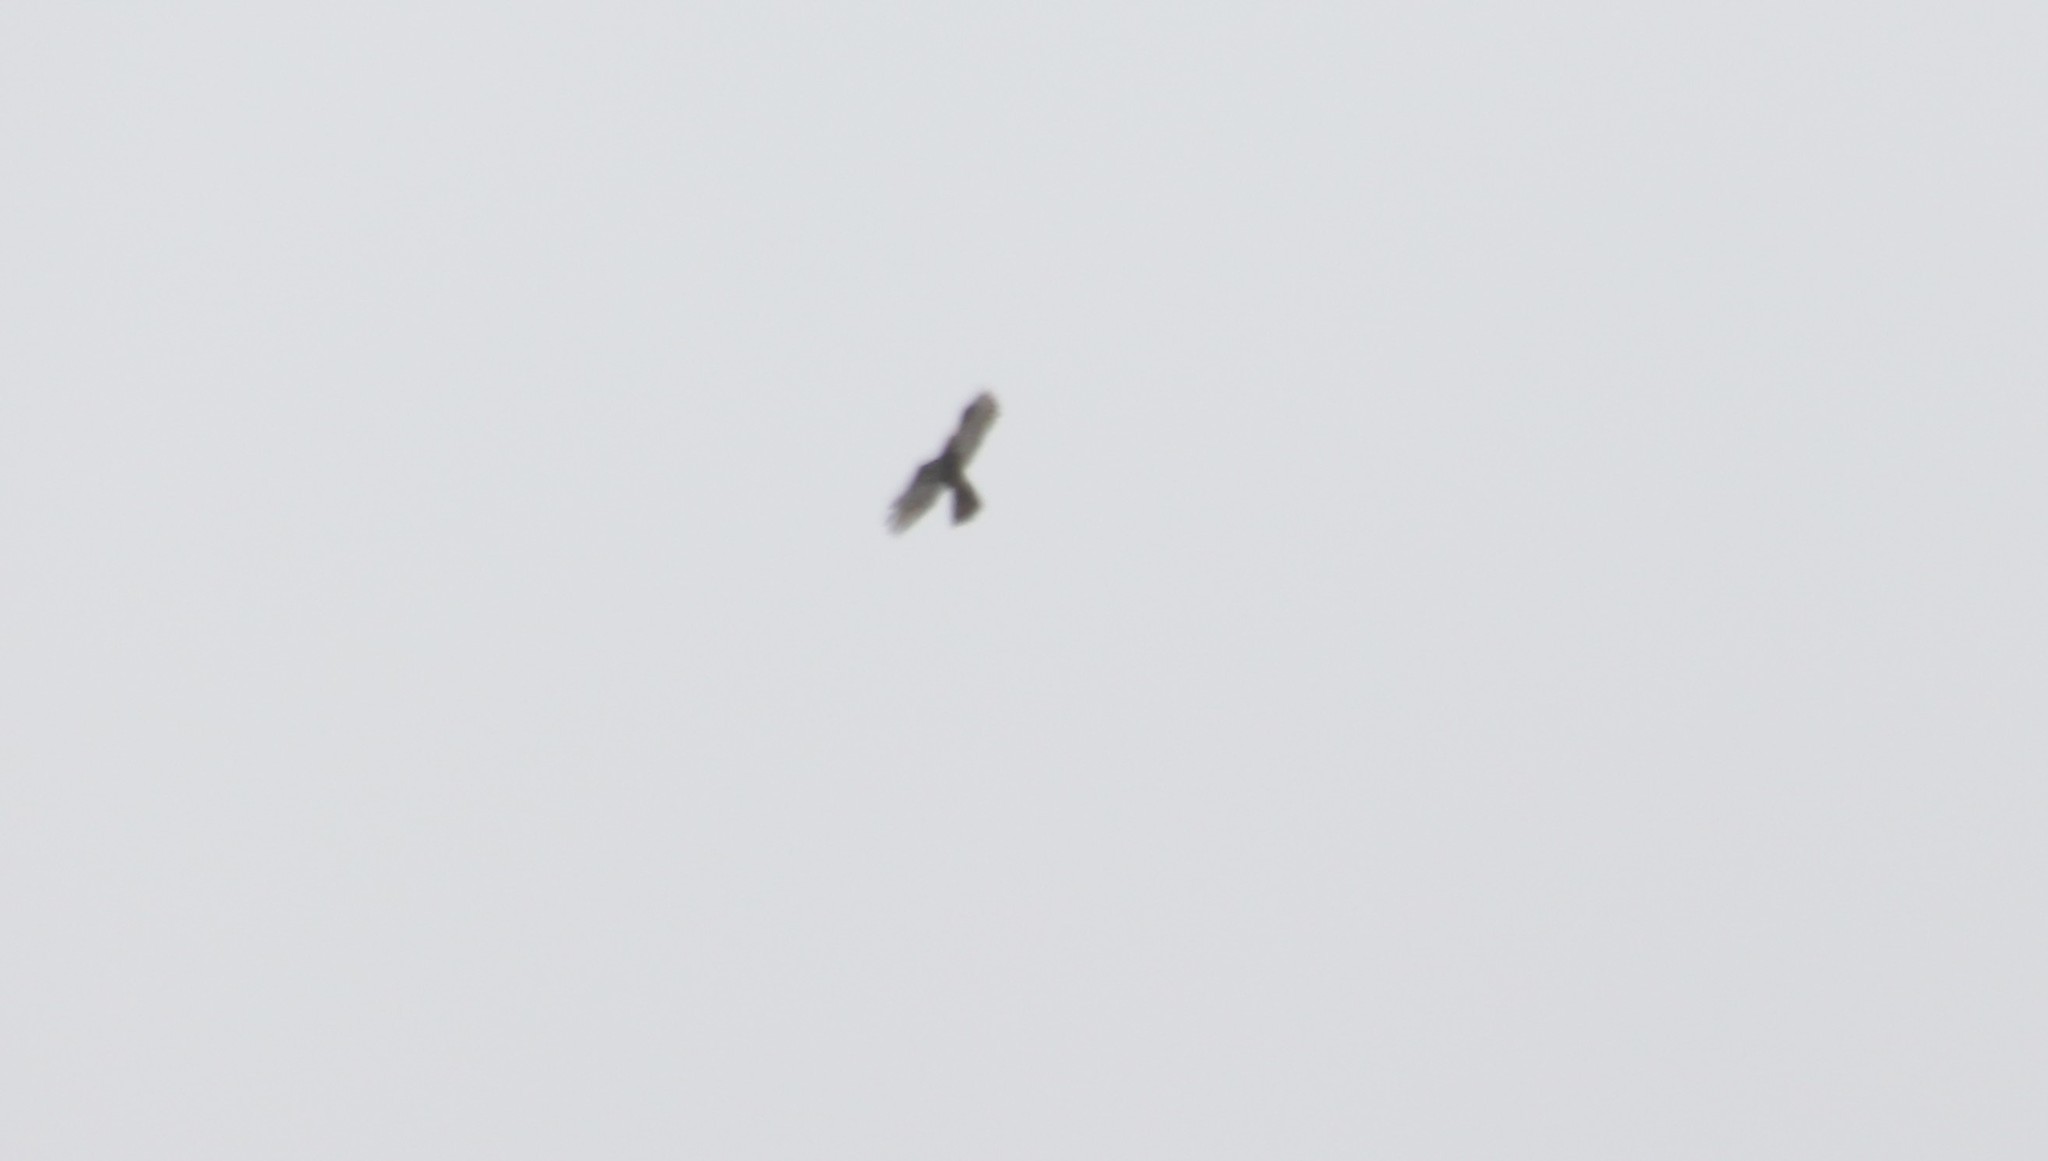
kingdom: Animalia
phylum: Chordata
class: Aves
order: Accipitriformes
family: Accipitridae
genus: Pernis
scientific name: Pernis apivorus
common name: European honey buzzard
